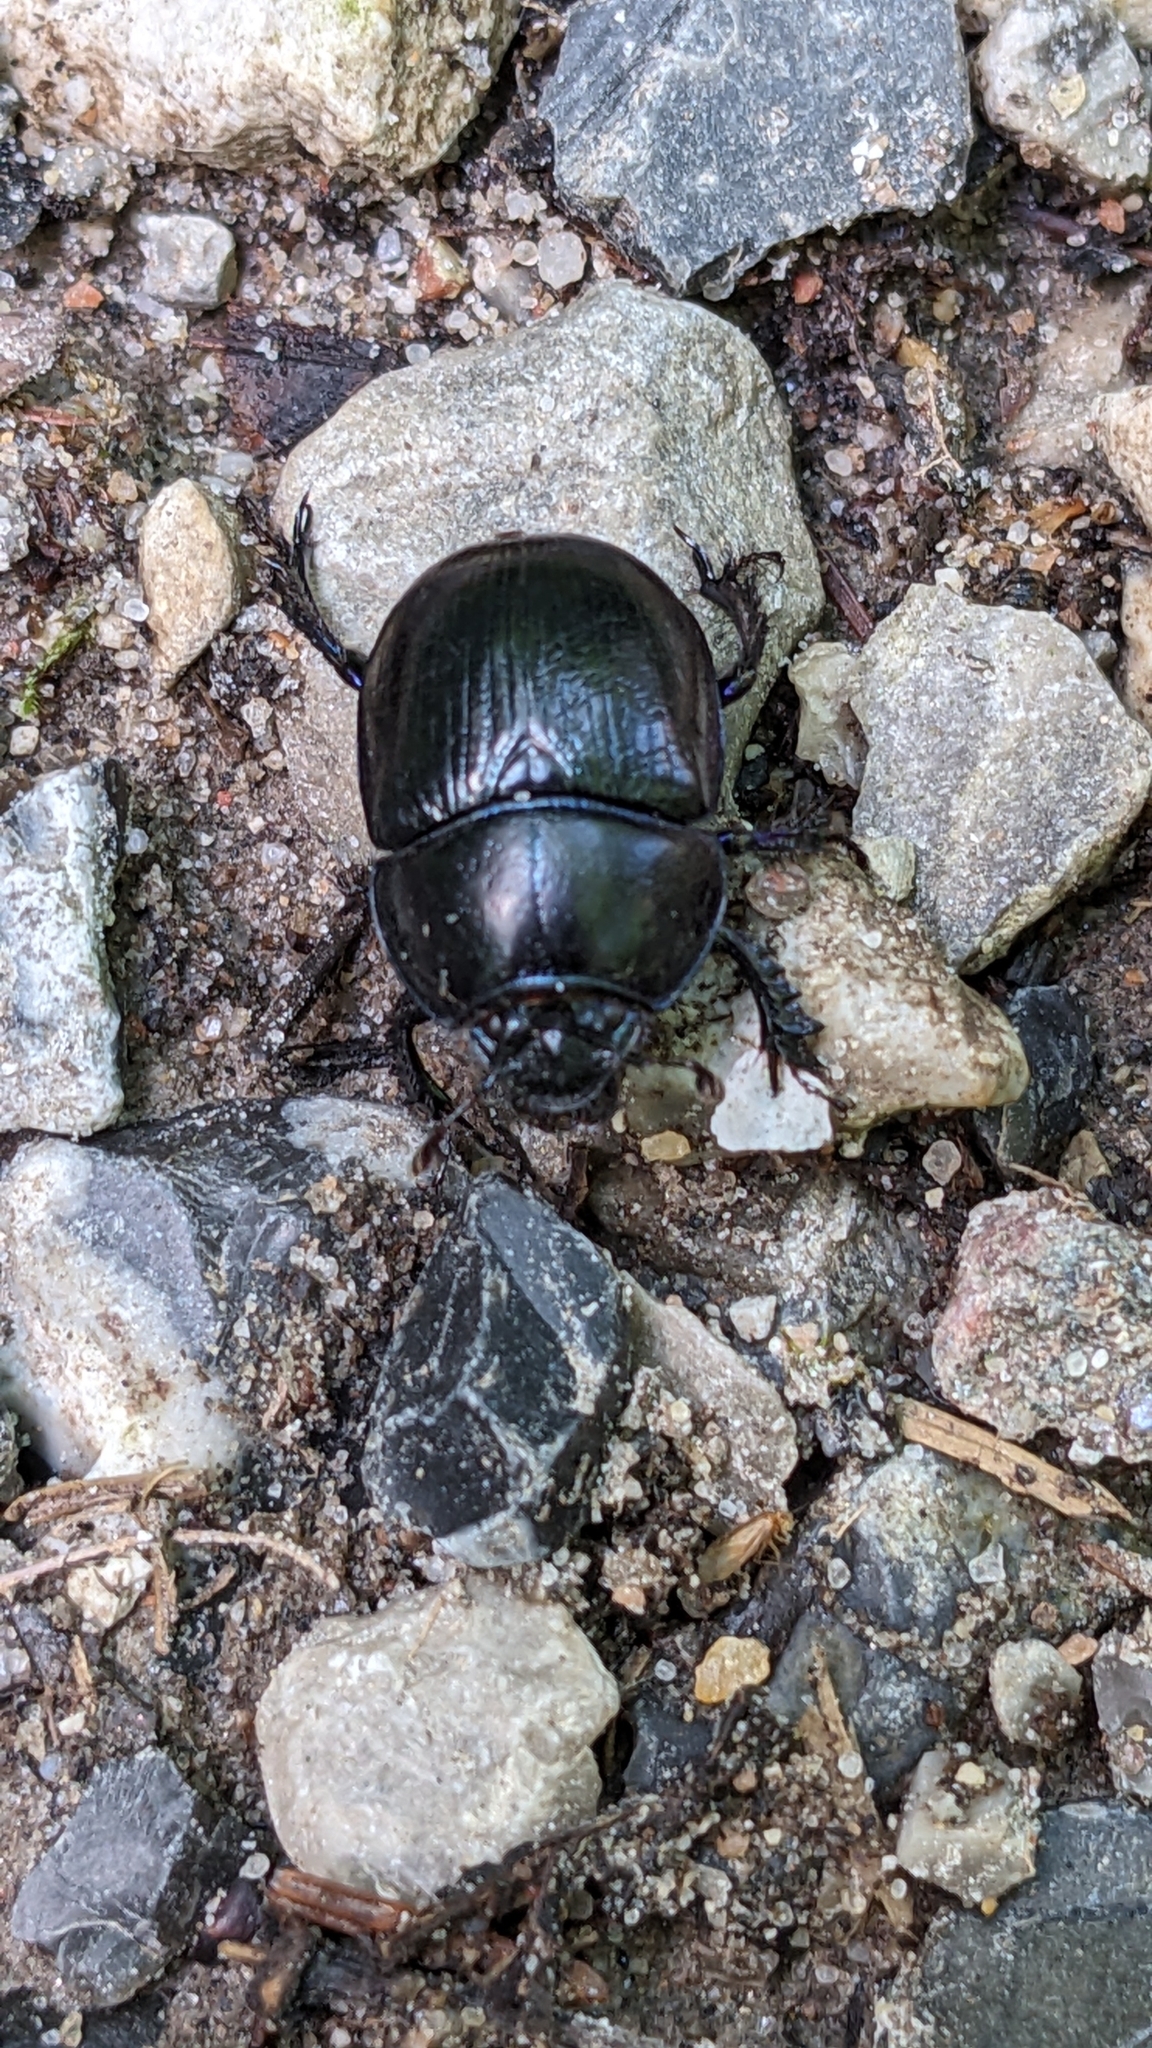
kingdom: Animalia
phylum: Arthropoda
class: Insecta
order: Coleoptera
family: Geotrupidae
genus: Anoplotrupes
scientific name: Anoplotrupes stercorosus
